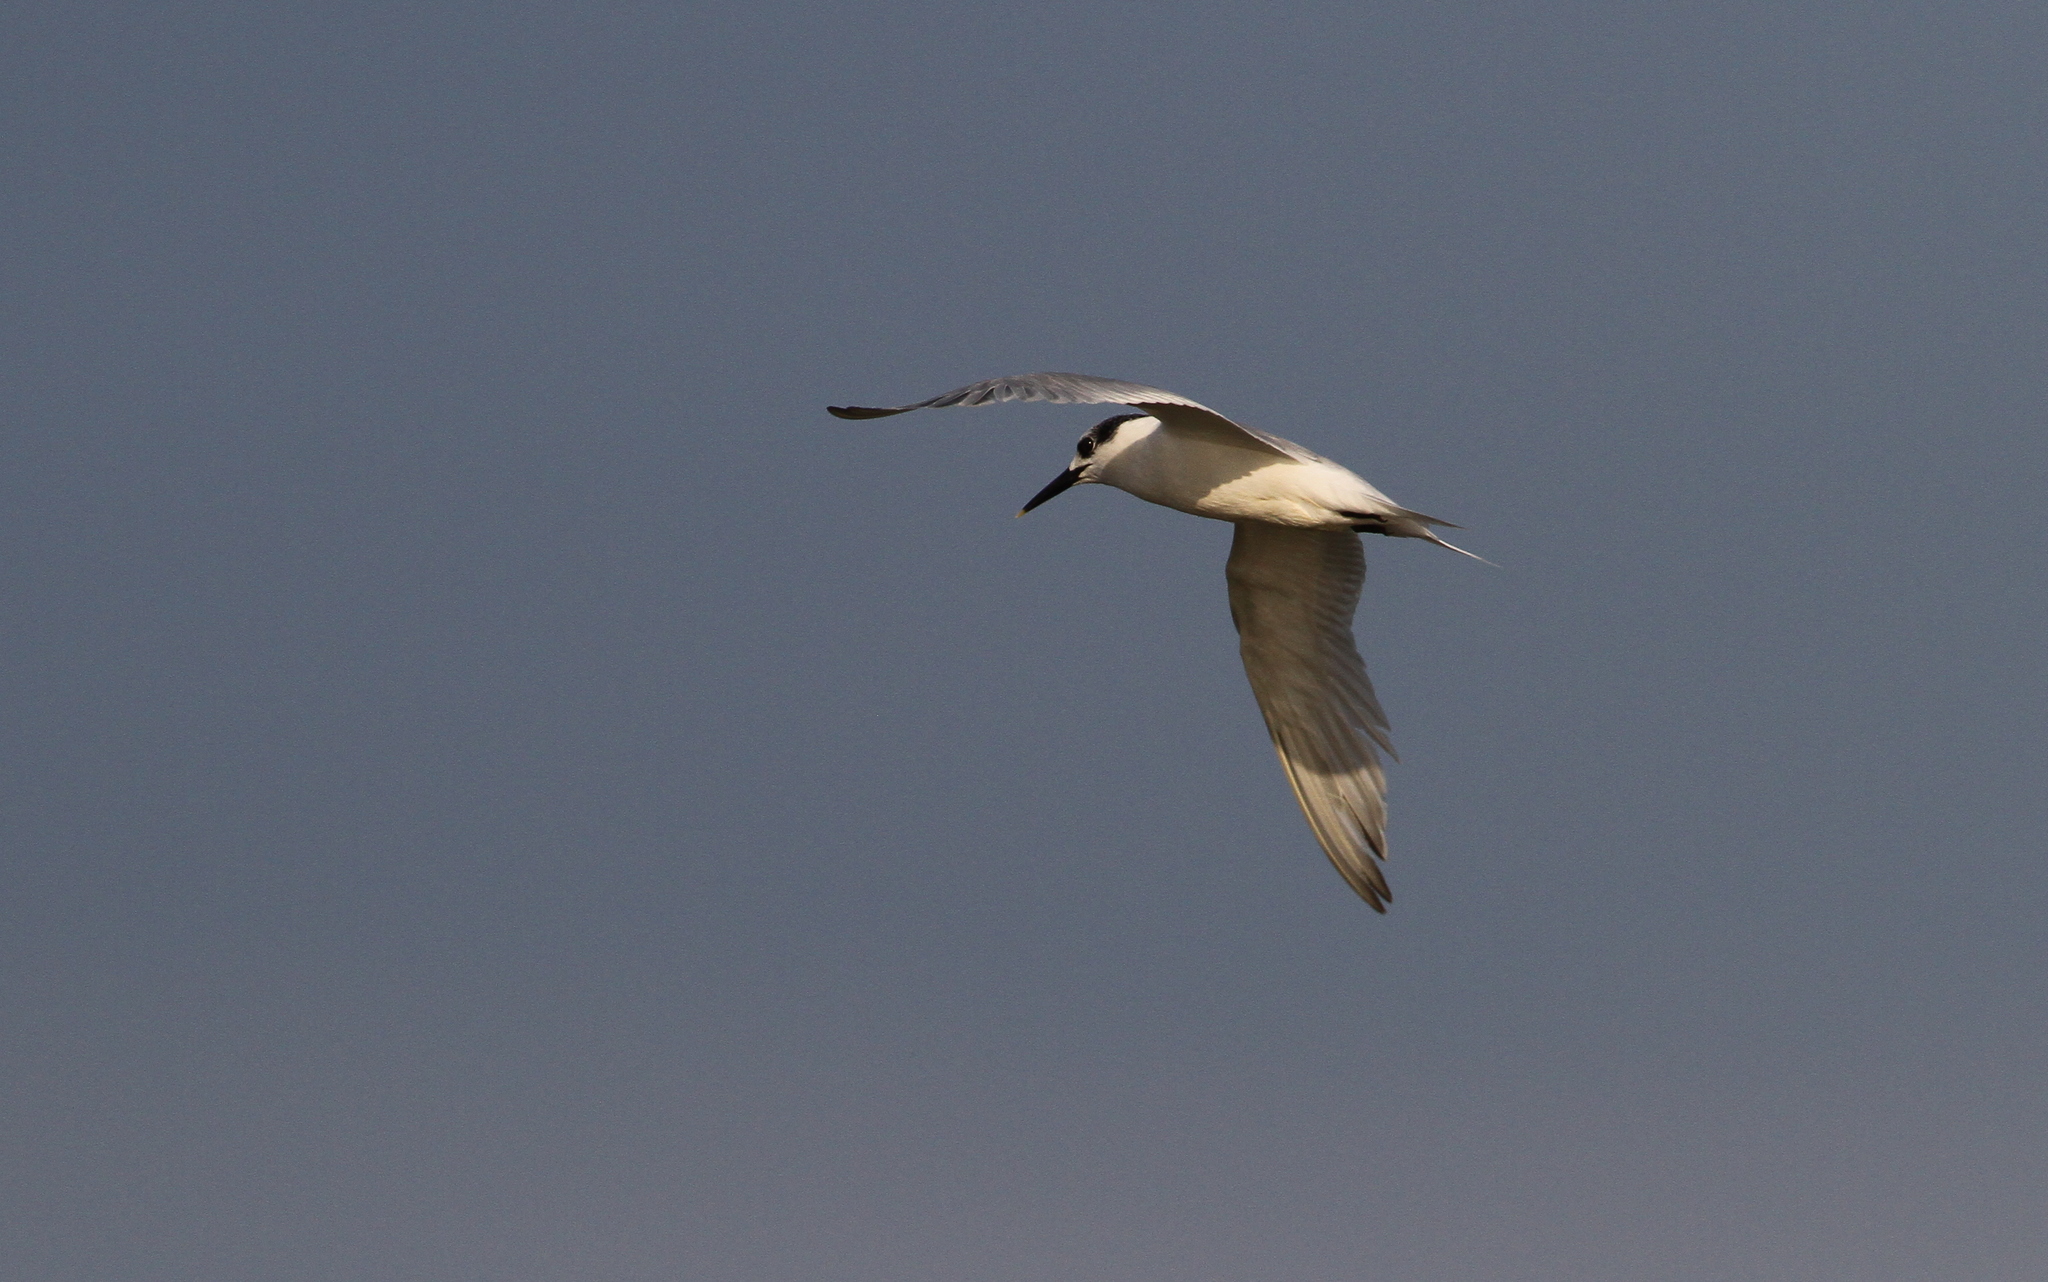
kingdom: Animalia
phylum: Chordata
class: Aves
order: Charadriiformes
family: Laridae
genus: Thalasseus
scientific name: Thalasseus sandvicensis
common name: Sandwich tern
